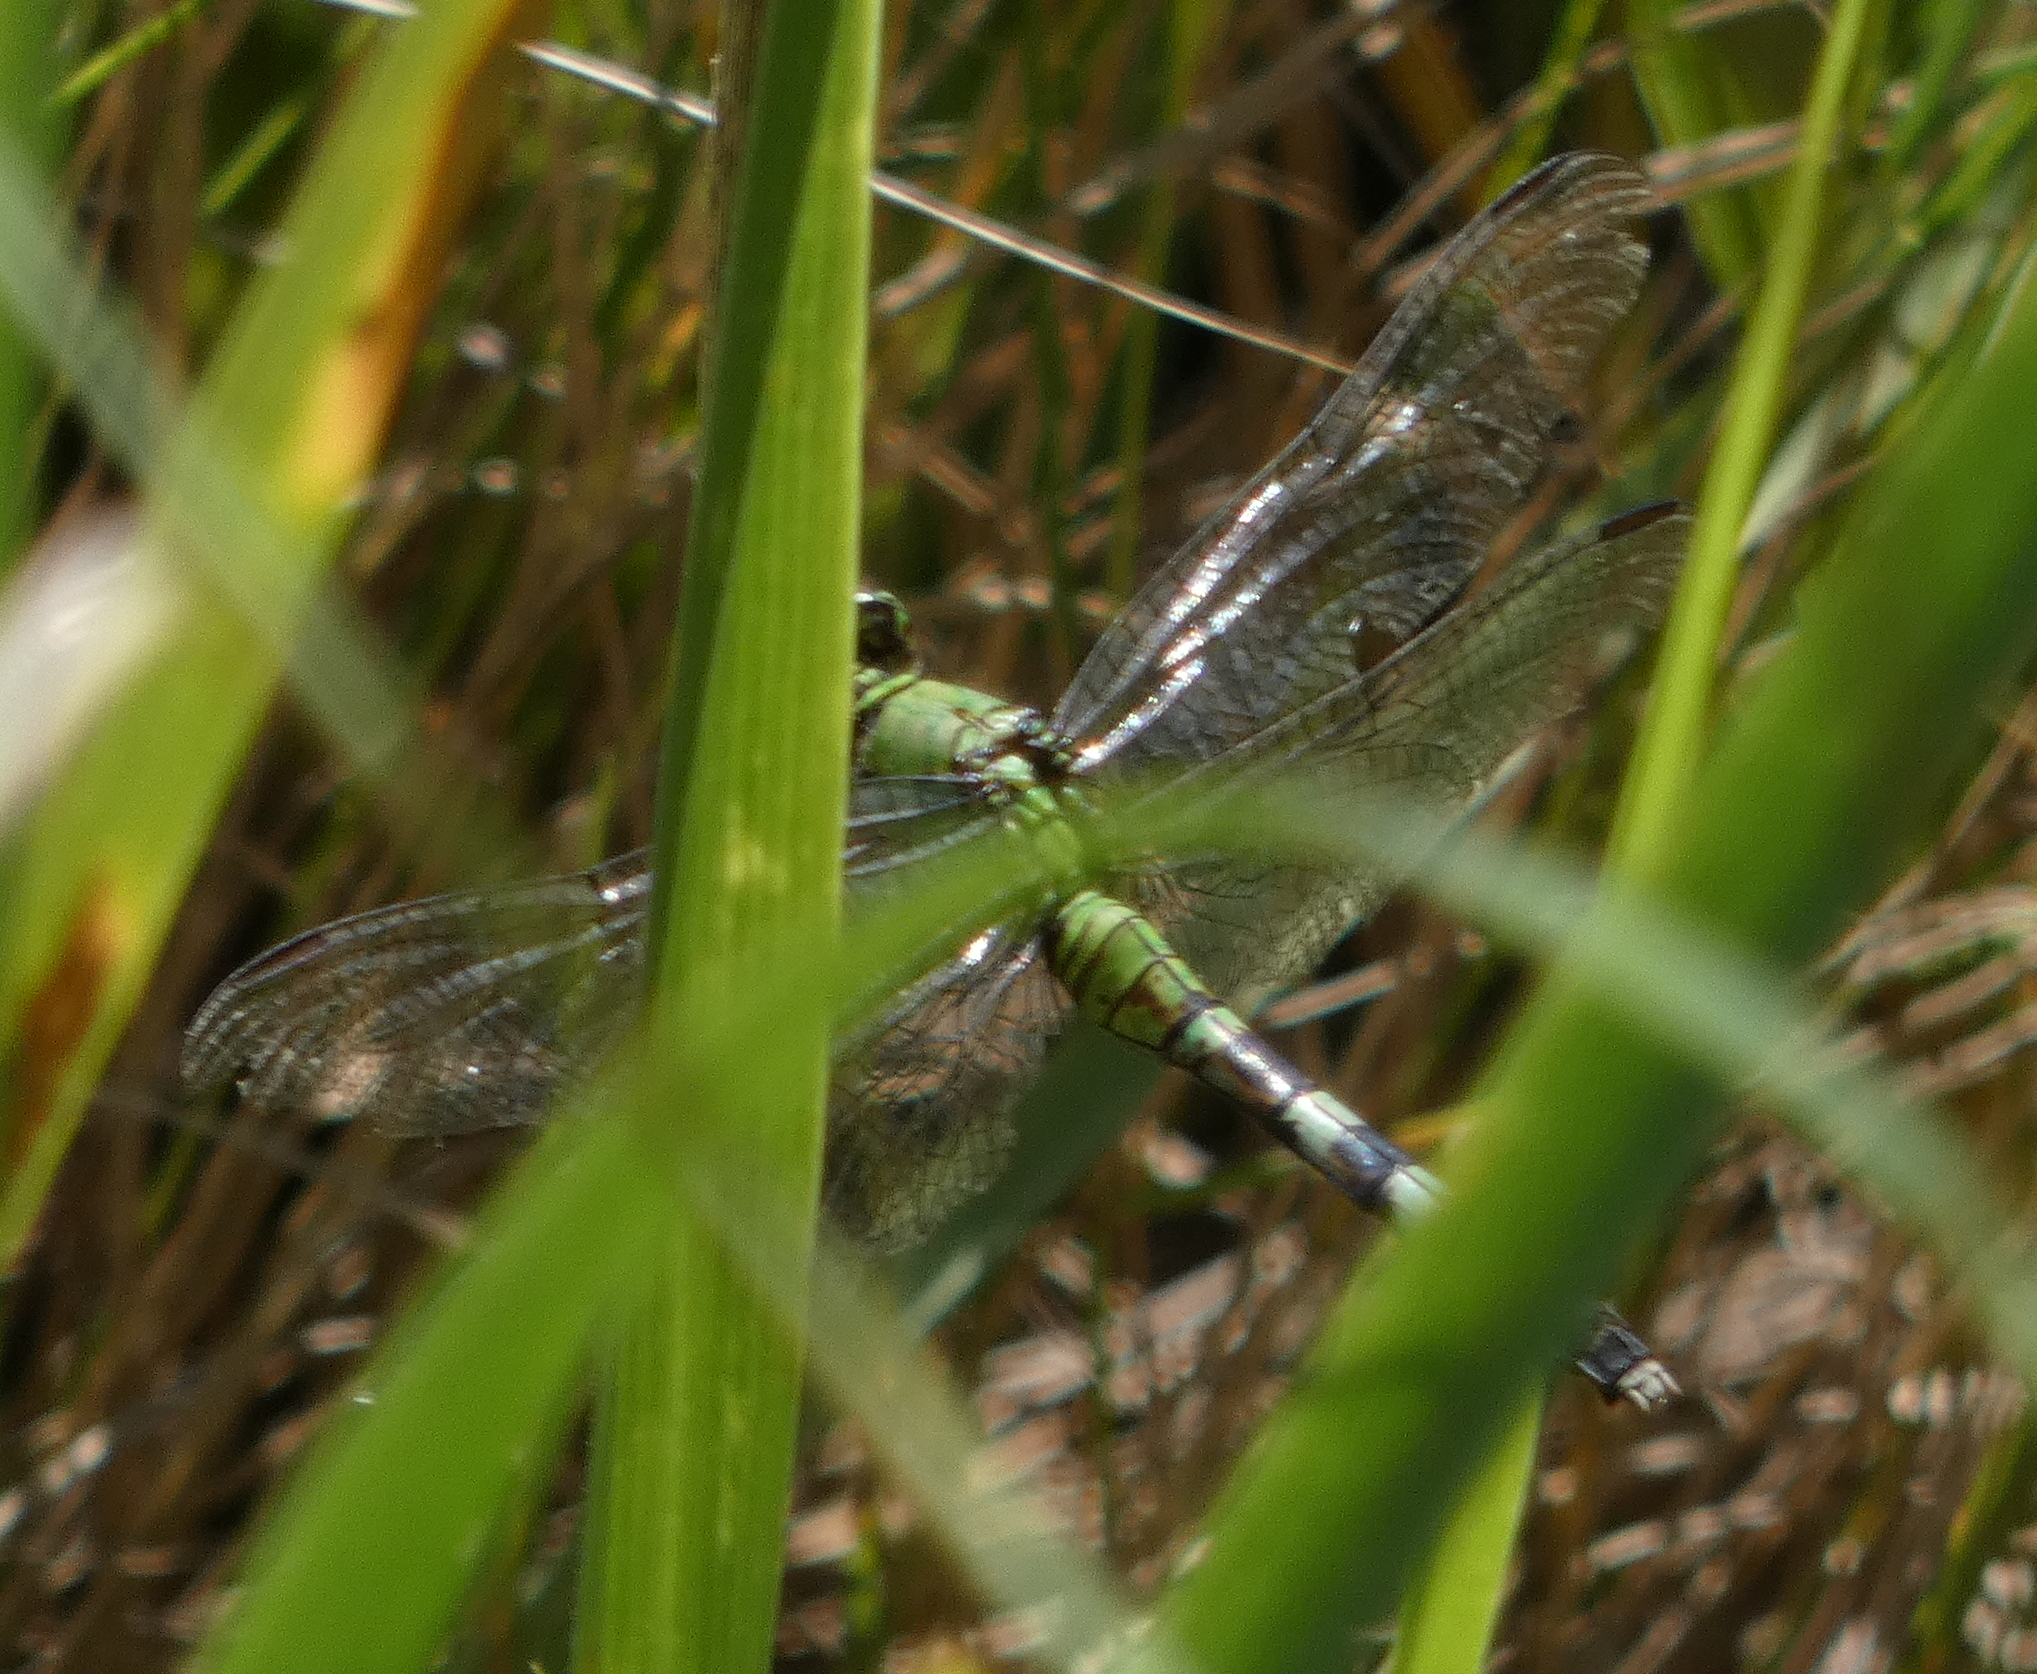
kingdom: Animalia
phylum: Arthropoda
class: Insecta
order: Odonata
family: Libellulidae
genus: Erythemis
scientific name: Erythemis simplicicollis
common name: Eastern pondhawk
